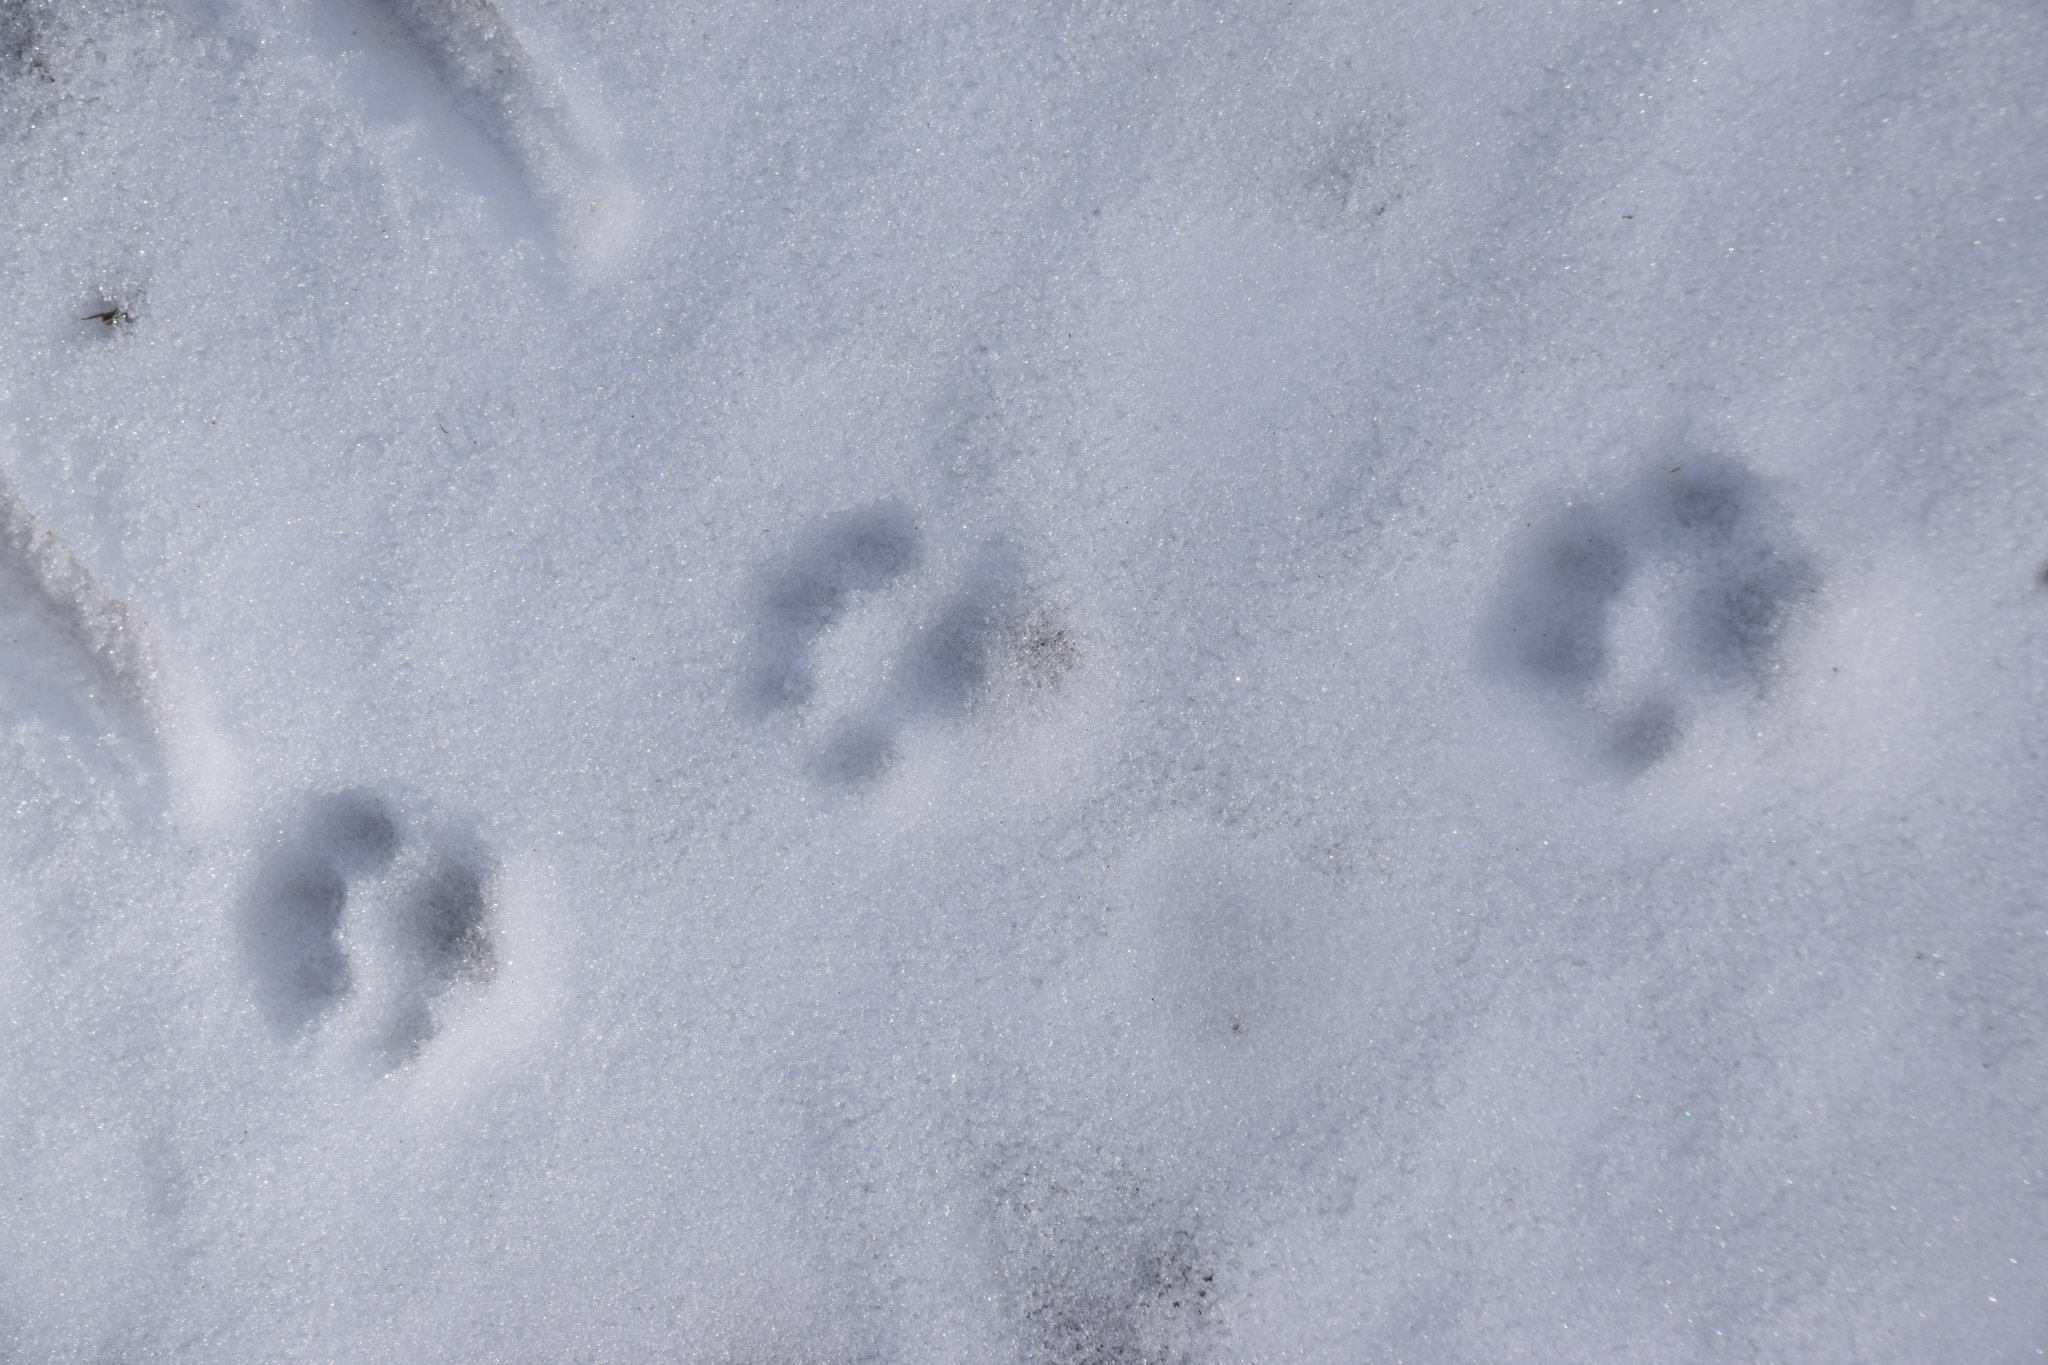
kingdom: Animalia
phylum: Chordata
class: Mammalia
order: Carnivora
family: Felidae
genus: Lynx
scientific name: Lynx canadensis
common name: Canadian lynx
